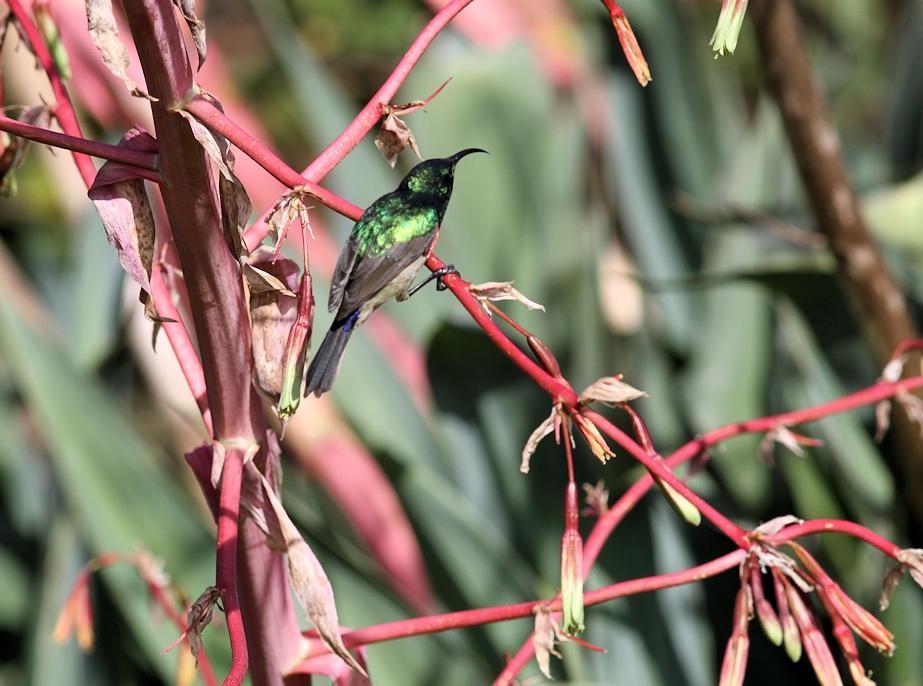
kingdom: Plantae
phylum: Tracheophyta
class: Liliopsida
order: Asparagales
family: Asparagaceae
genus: Beschorneria
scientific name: Beschorneria yuccoides
